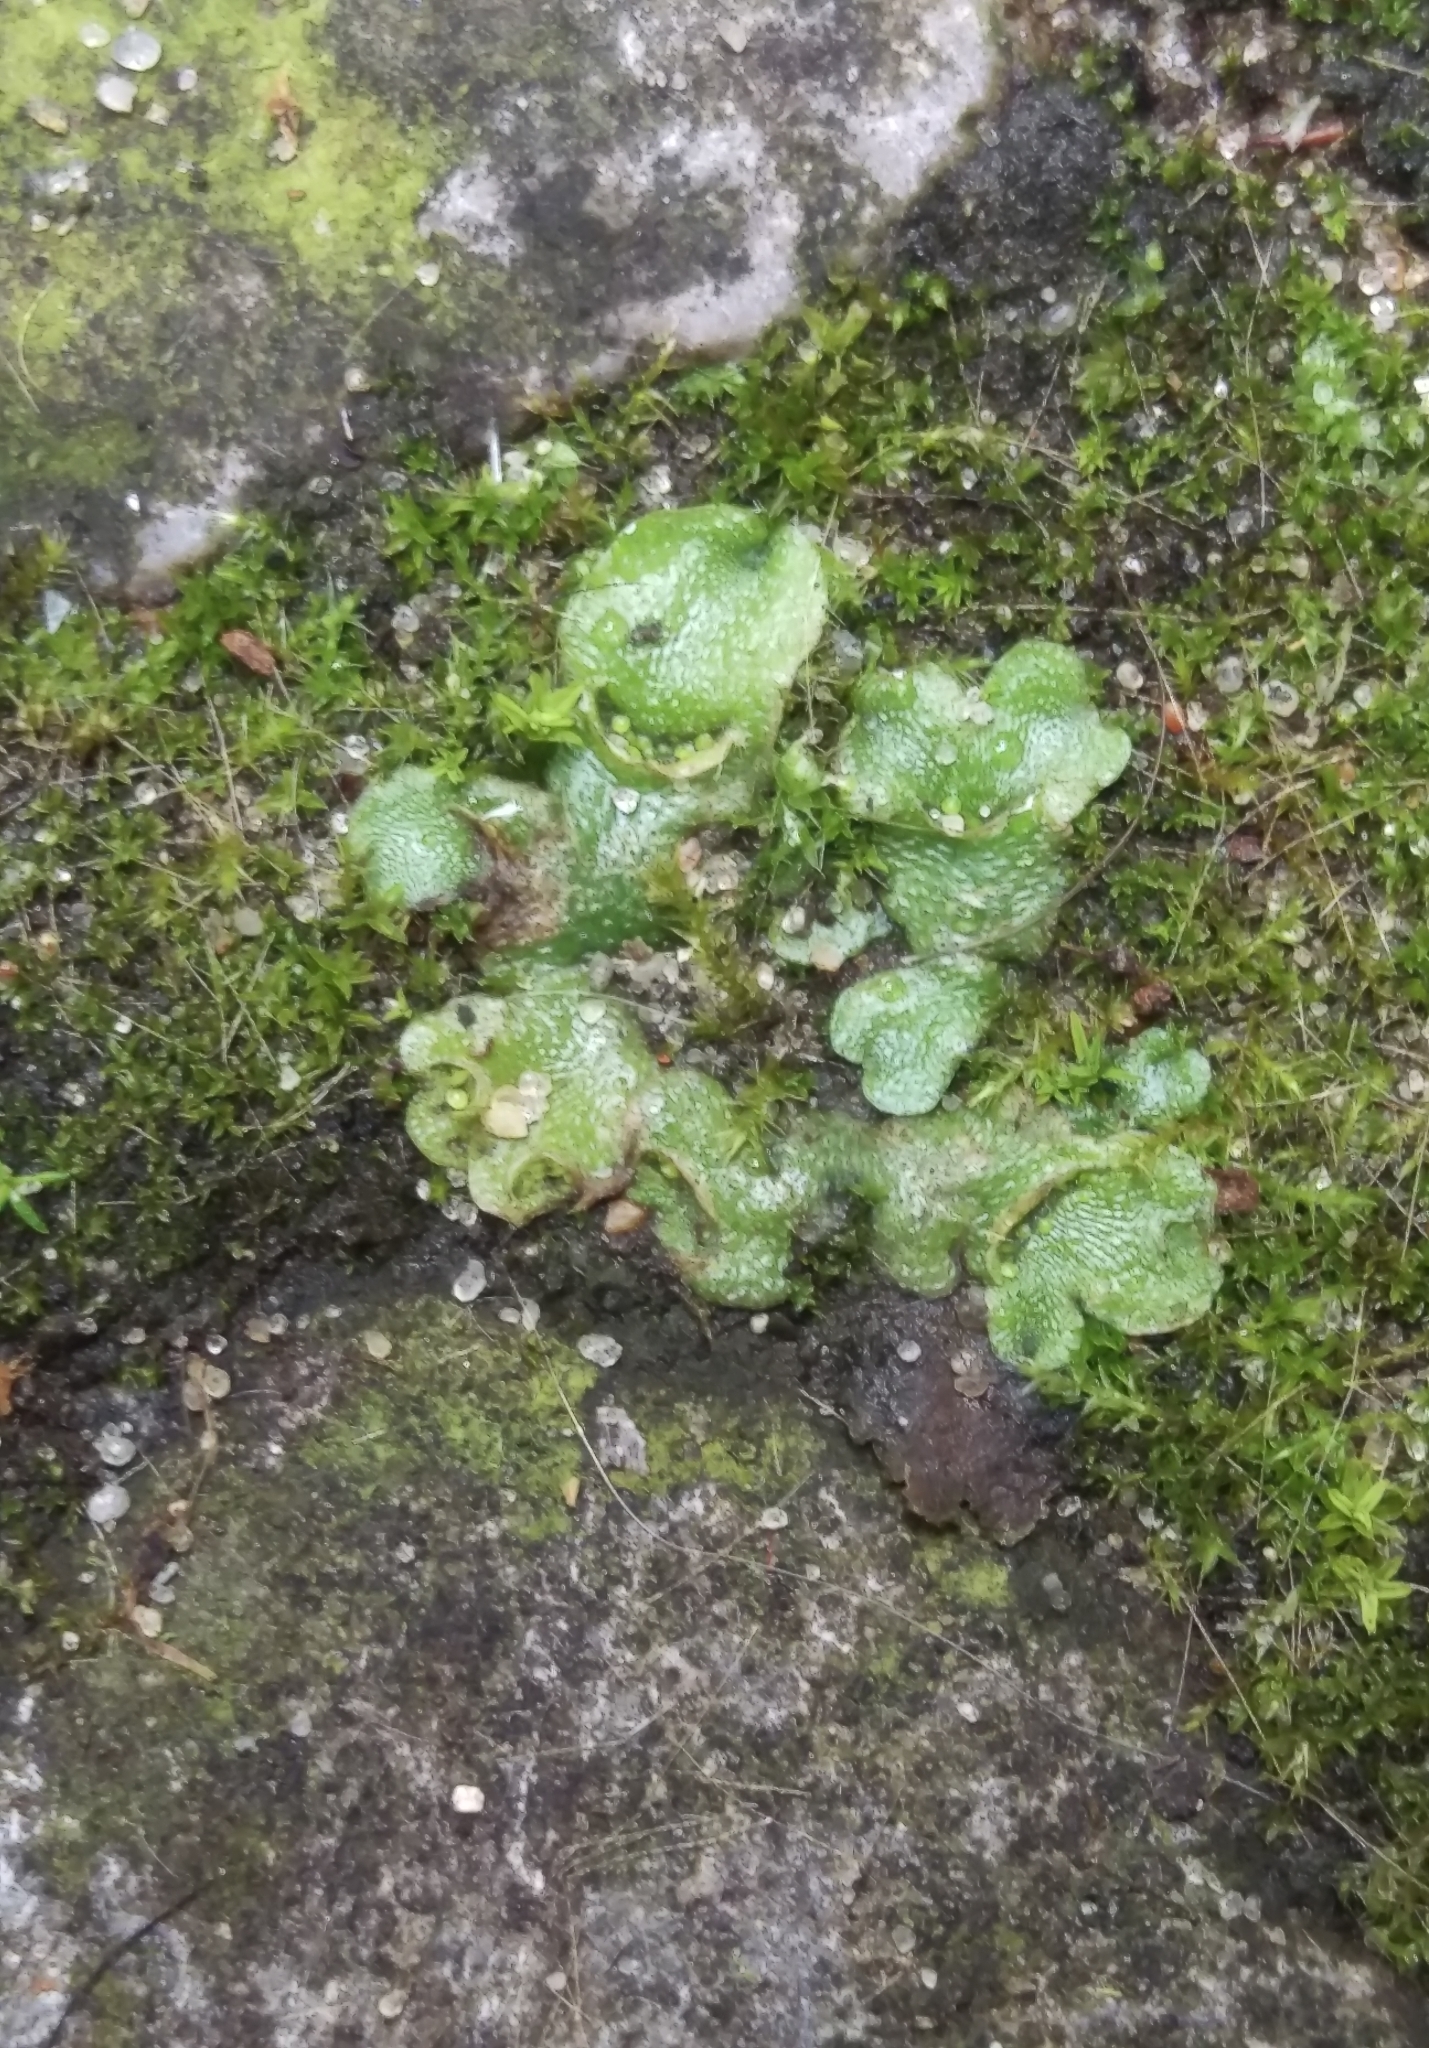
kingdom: Plantae
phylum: Marchantiophyta
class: Marchantiopsida
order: Lunulariales
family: Lunulariaceae
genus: Lunularia
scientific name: Lunularia cruciata
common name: Crescent-cup liverwort
